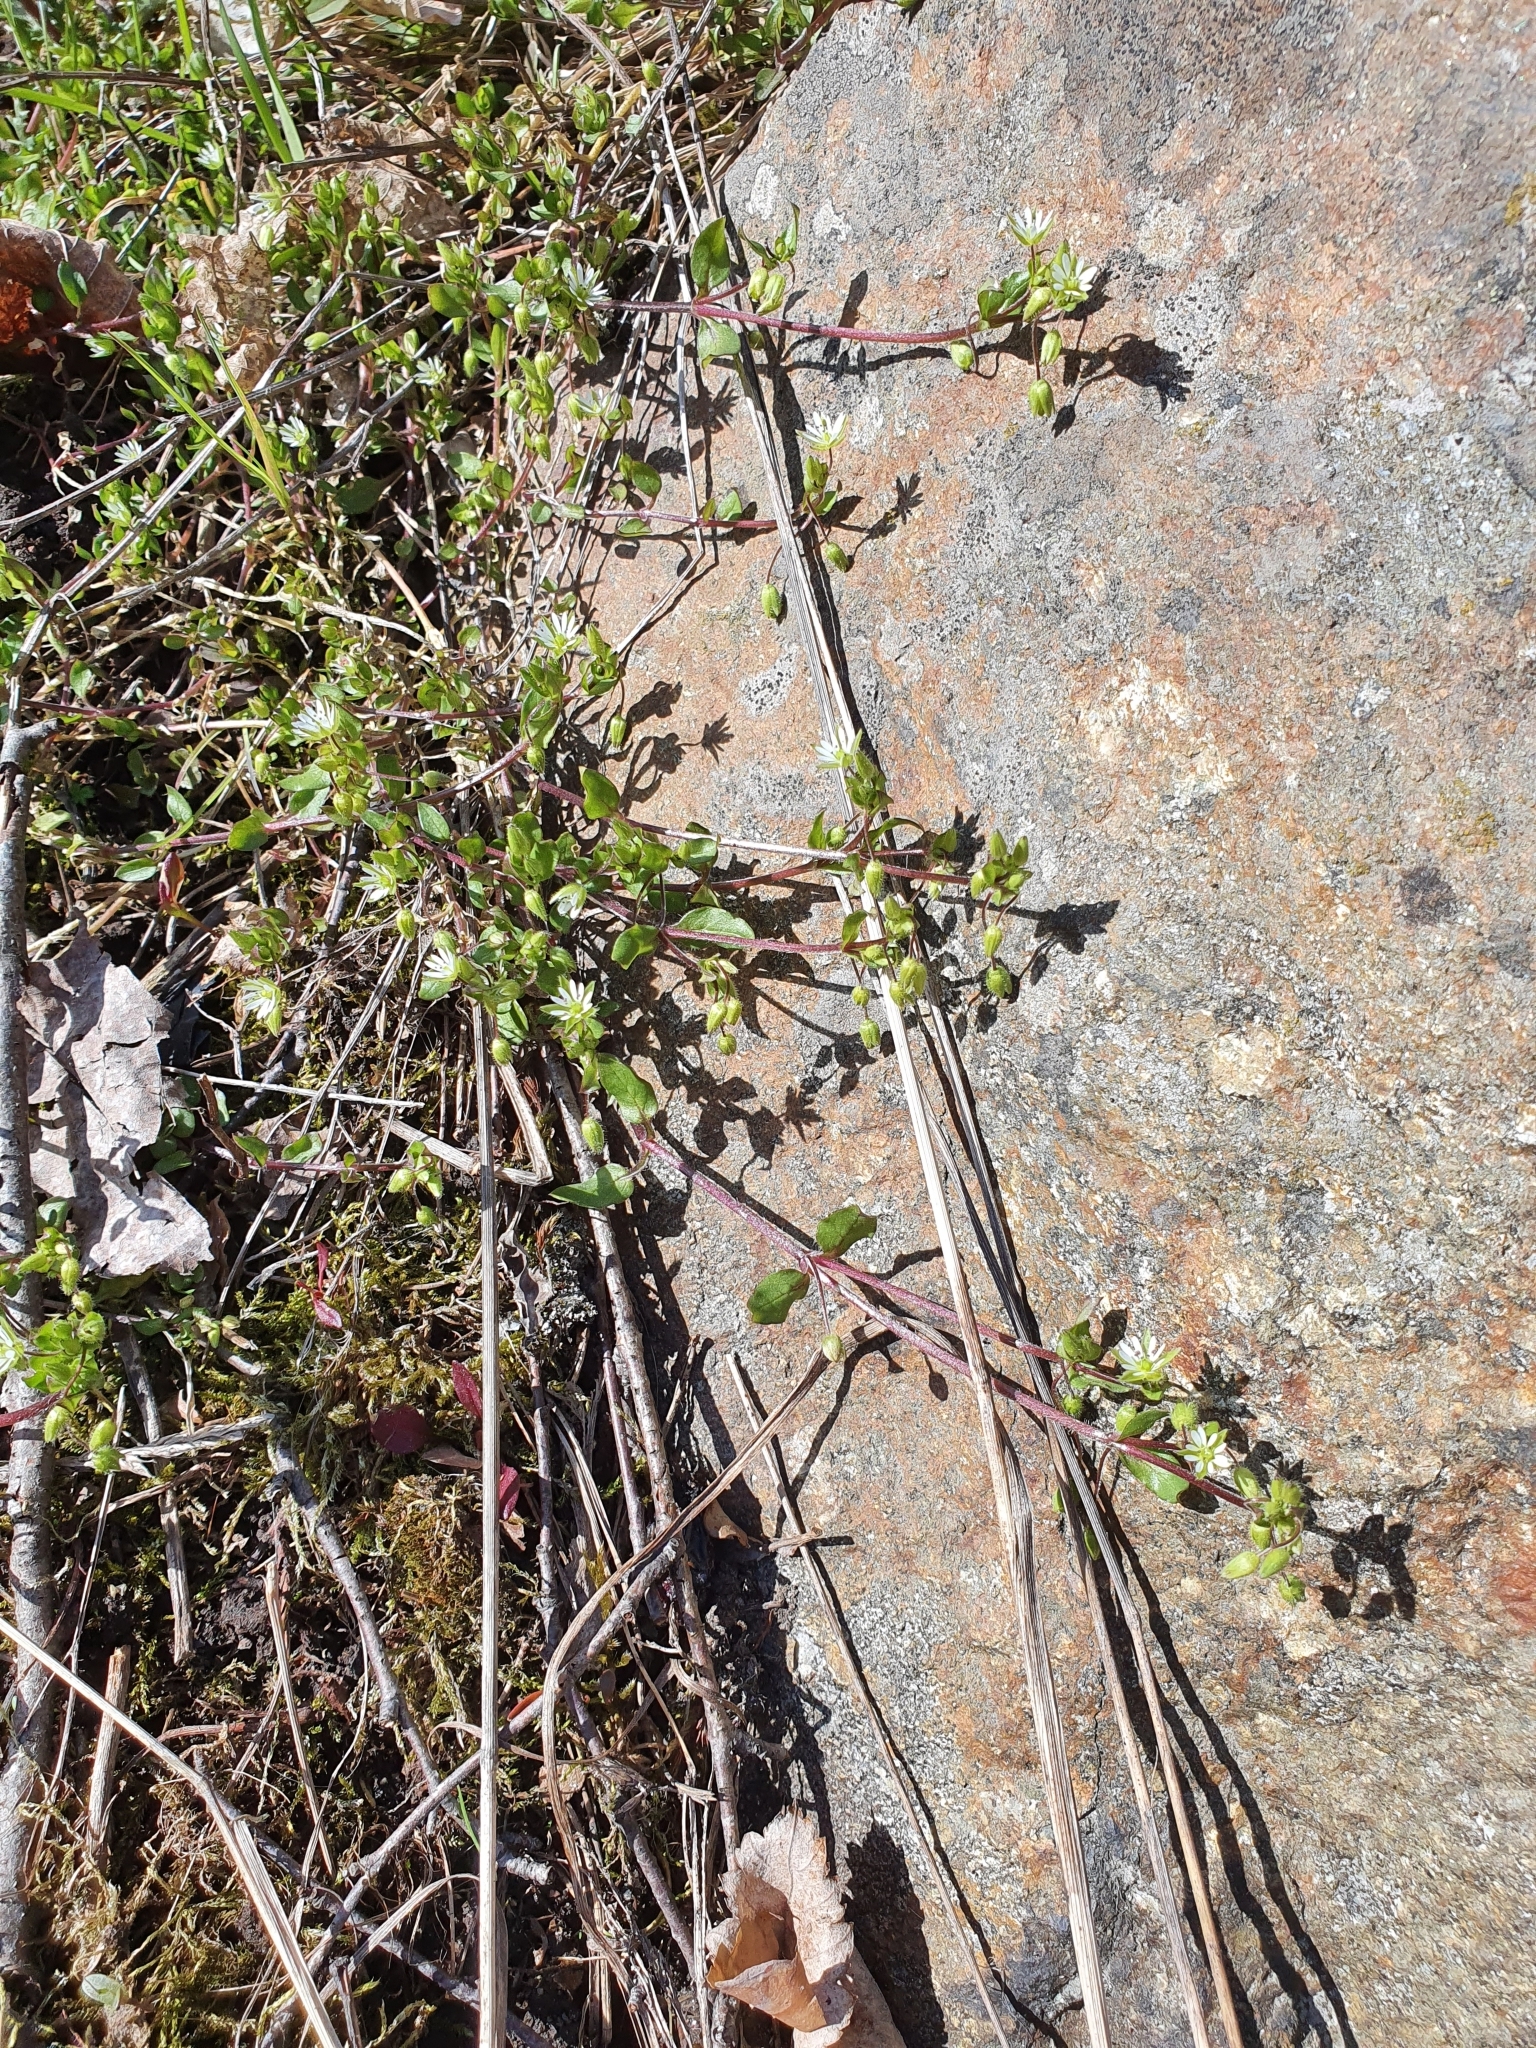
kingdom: Plantae
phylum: Tracheophyta
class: Magnoliopsida
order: Caryophyllales
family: Caryophyllaceae
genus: Stellaria
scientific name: Stellaria media
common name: Common chickweed
